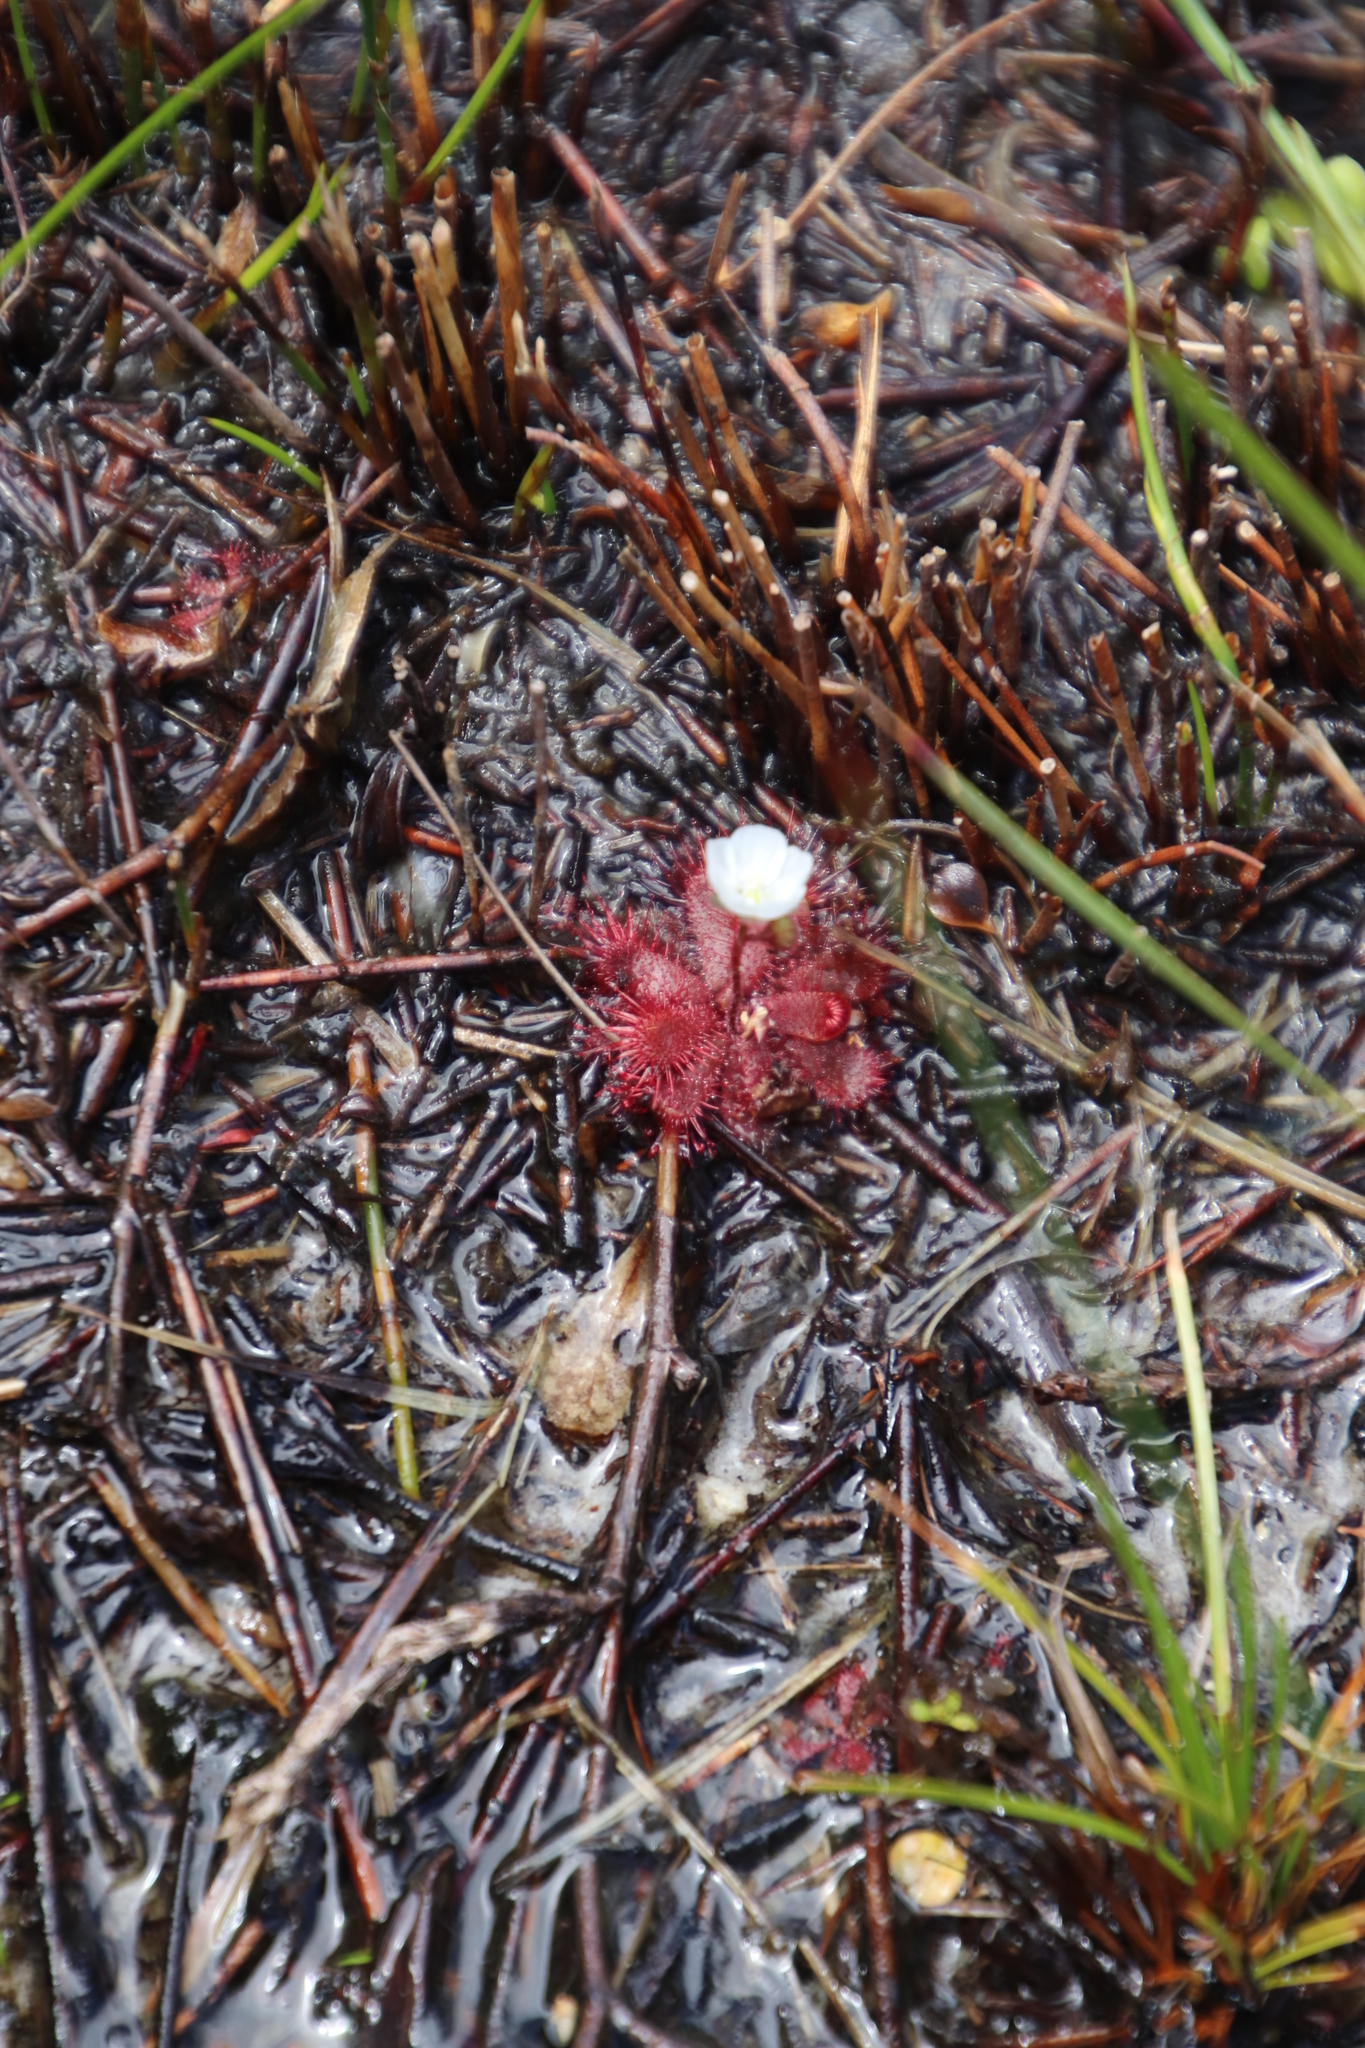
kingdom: Plantae
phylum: Tracheophyta
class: Magnoliopsida
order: Caryophyllales
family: Droseraceae
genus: Drosera
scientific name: Drosera trinervia
